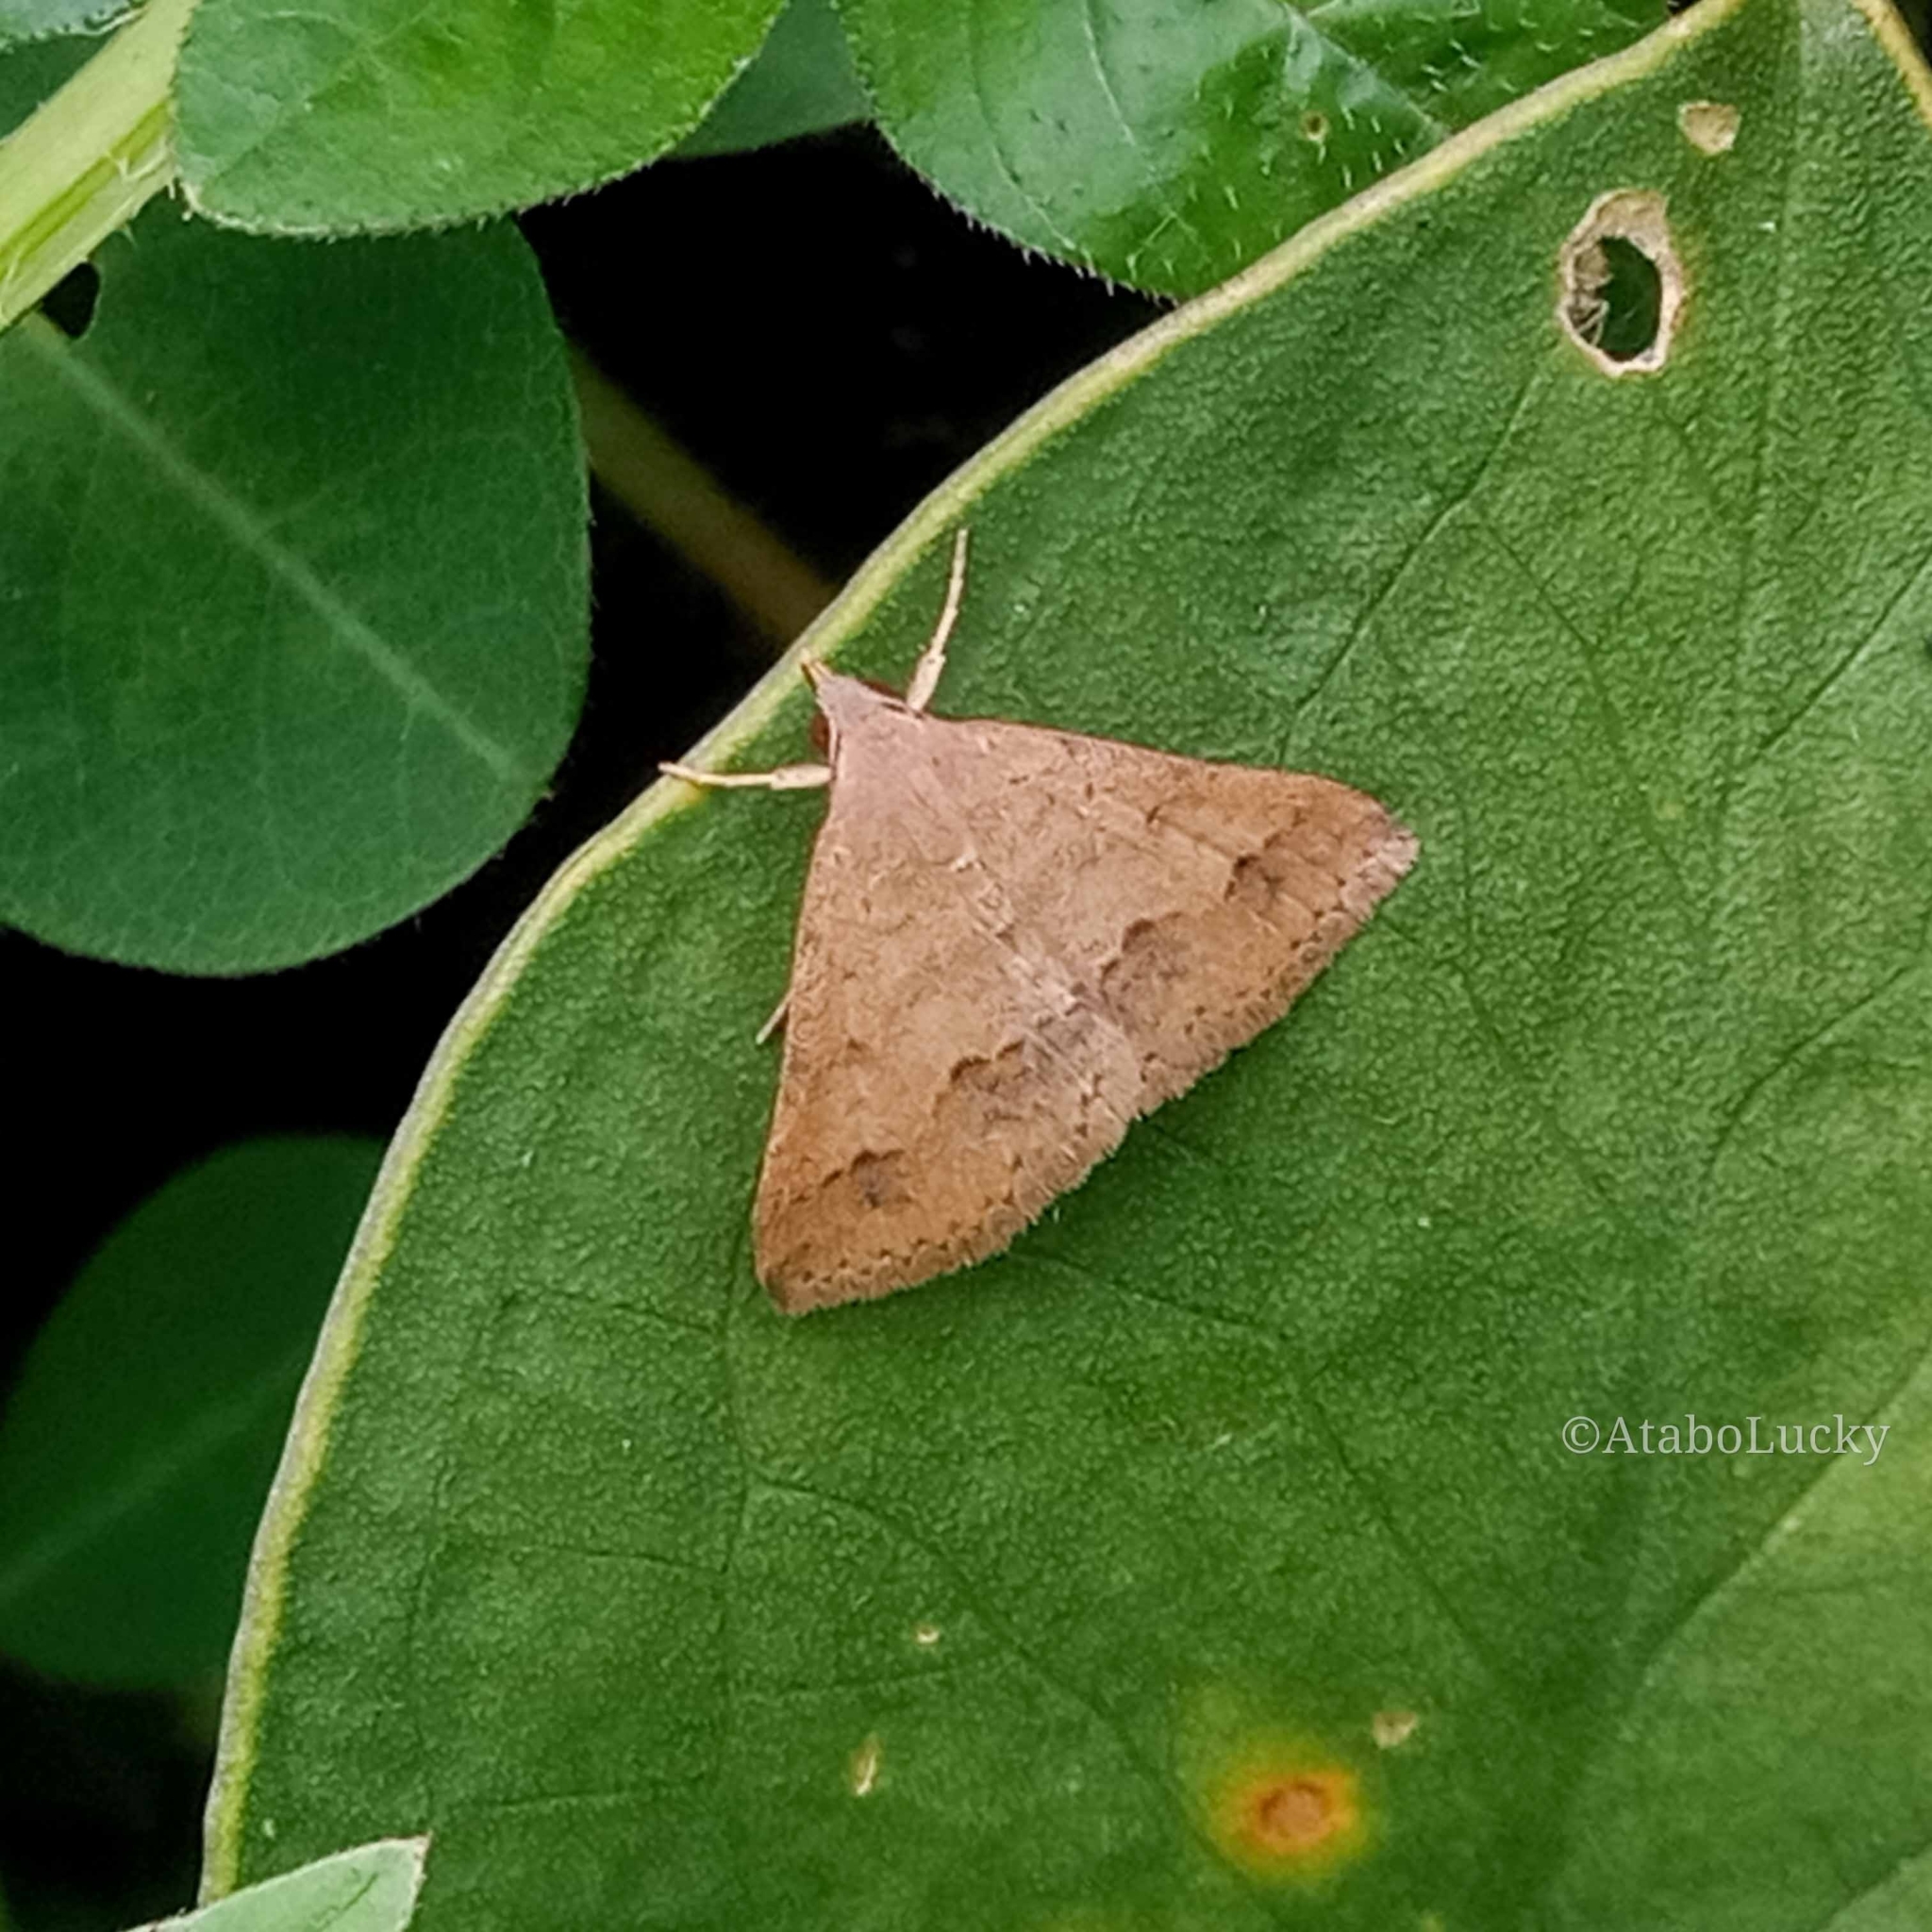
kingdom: Animalia
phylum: Arthropoda
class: Insecta
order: Lepidoptera
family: Erebidae
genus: Gesonia
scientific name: Gesonia obeditalis
